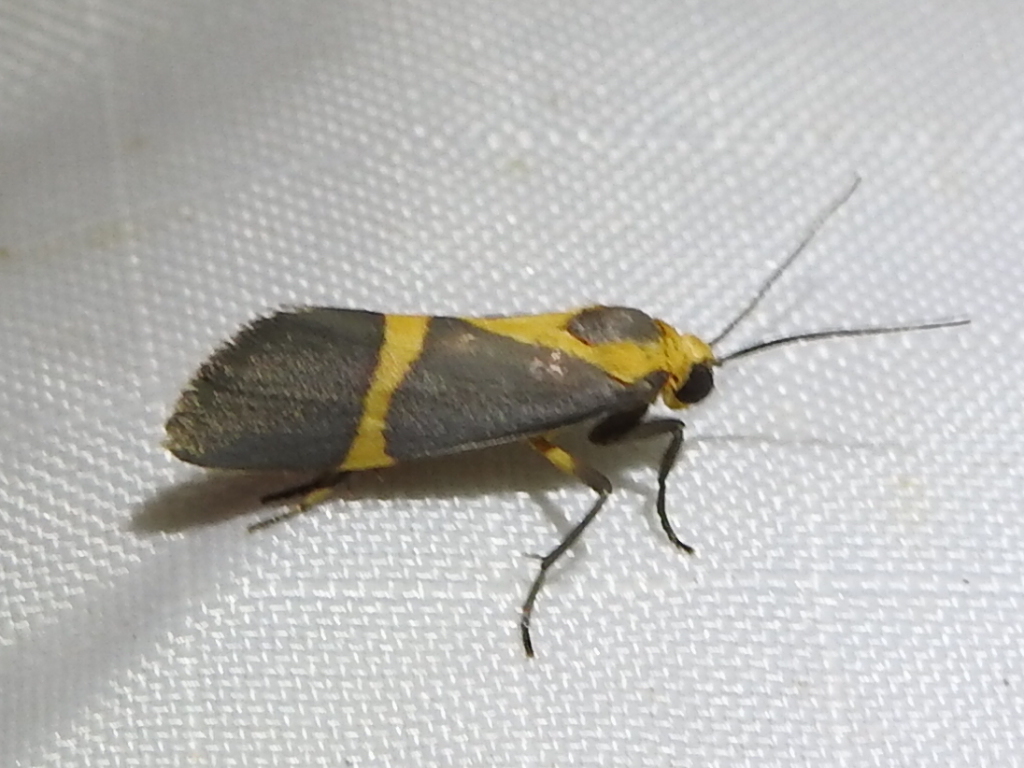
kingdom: Animalia
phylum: Arthropoda
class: Insecta
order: Lepidoptera
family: Erebidae
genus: Cisthene
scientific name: Cisthene tenuifascia
